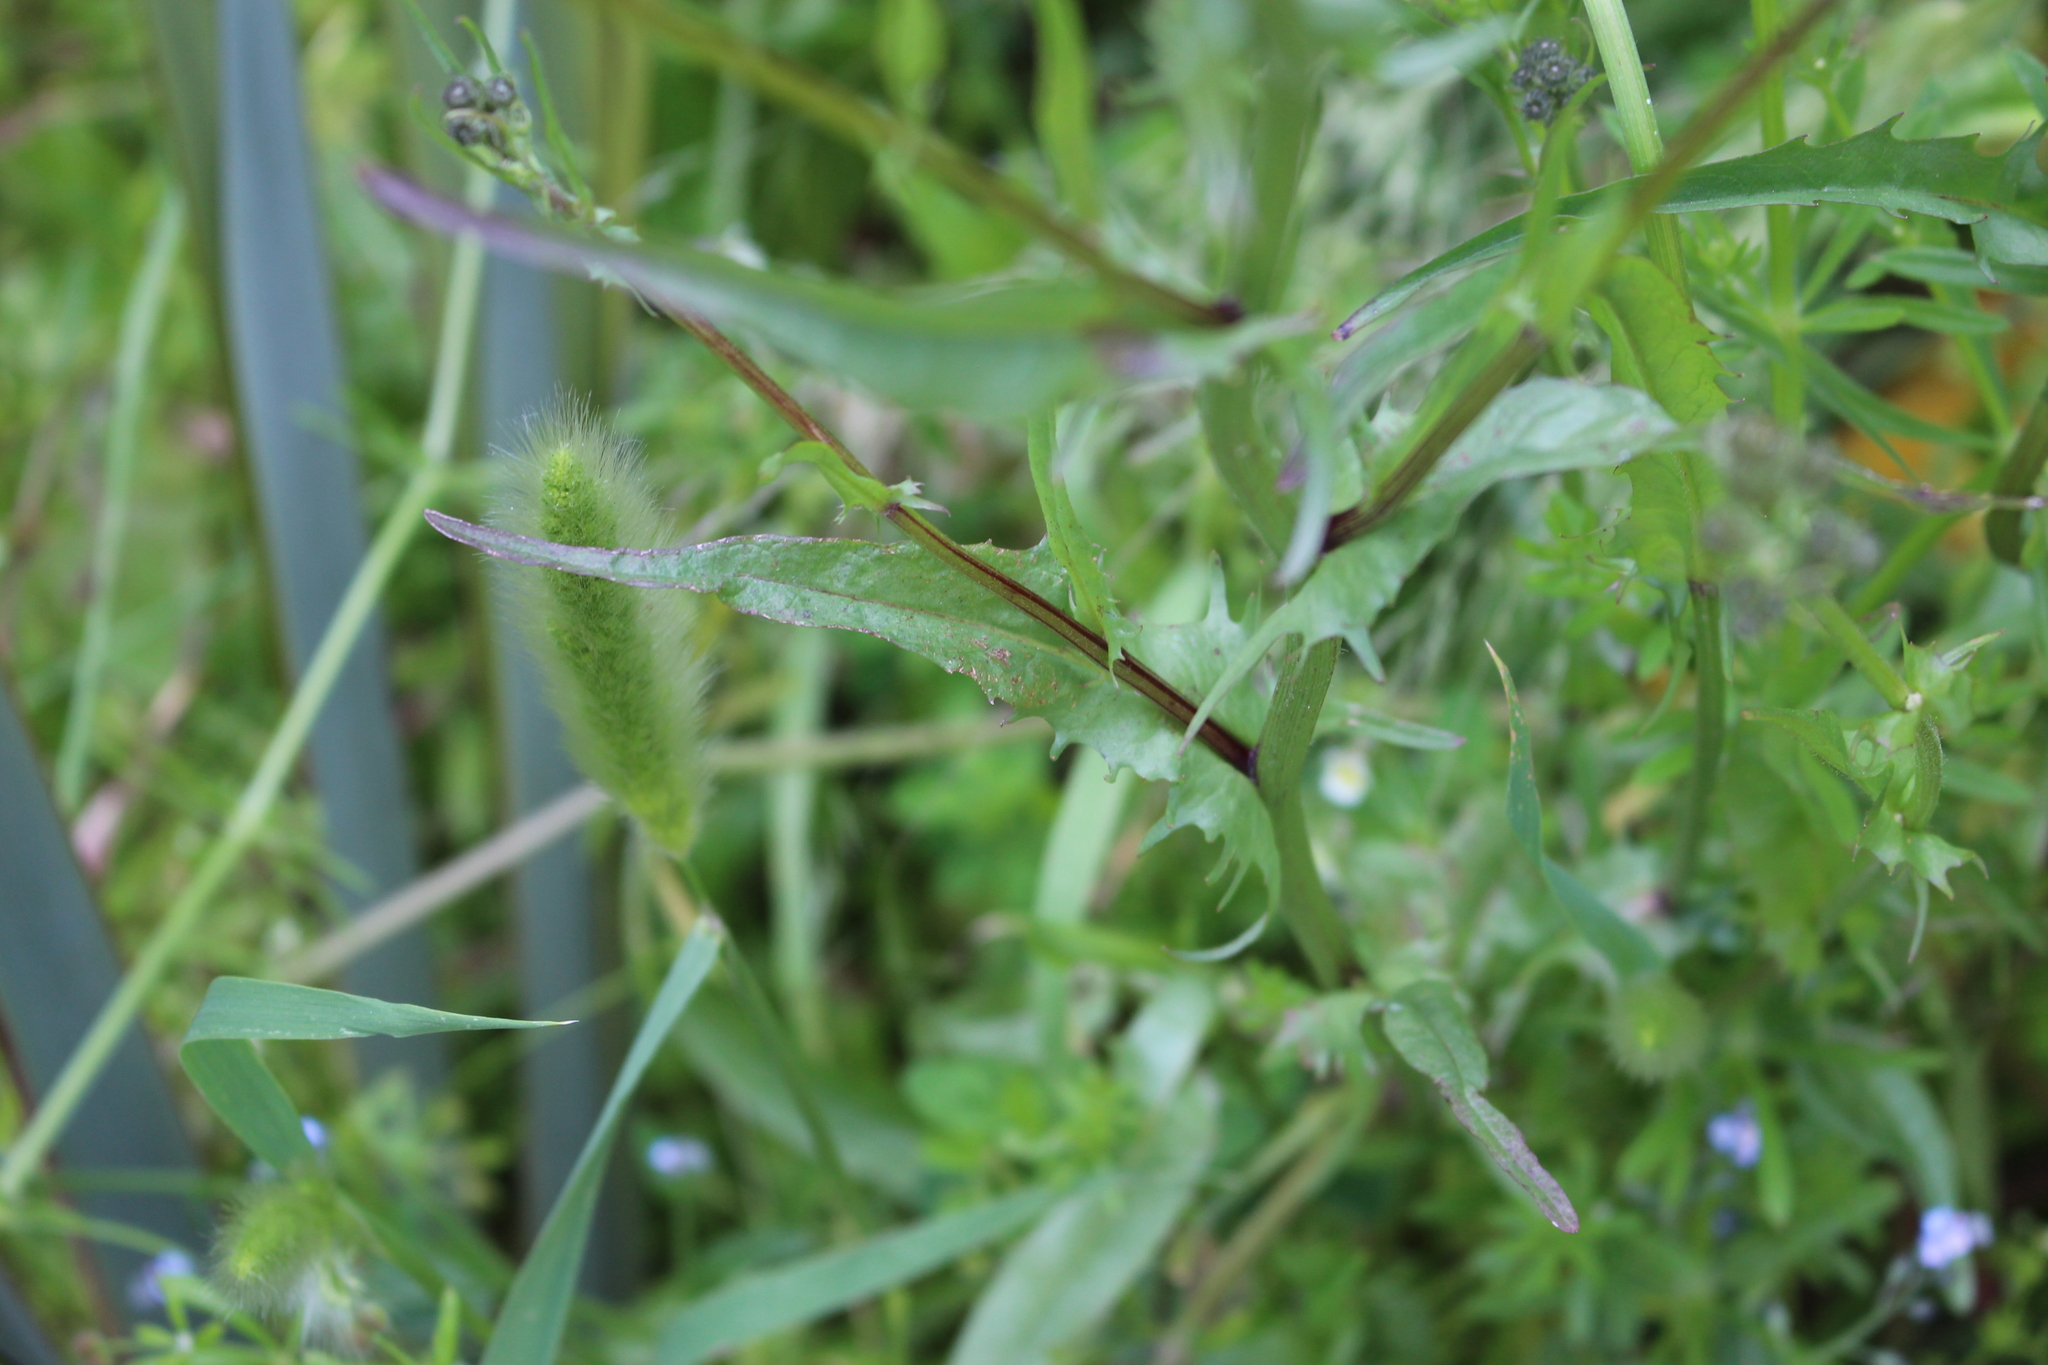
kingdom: Plantae
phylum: Tracheophyta
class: Magnoliopsida
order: Asterales
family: Asteraceae
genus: Crepis
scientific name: Crepis capillaris
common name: Smooth hawksbeard
